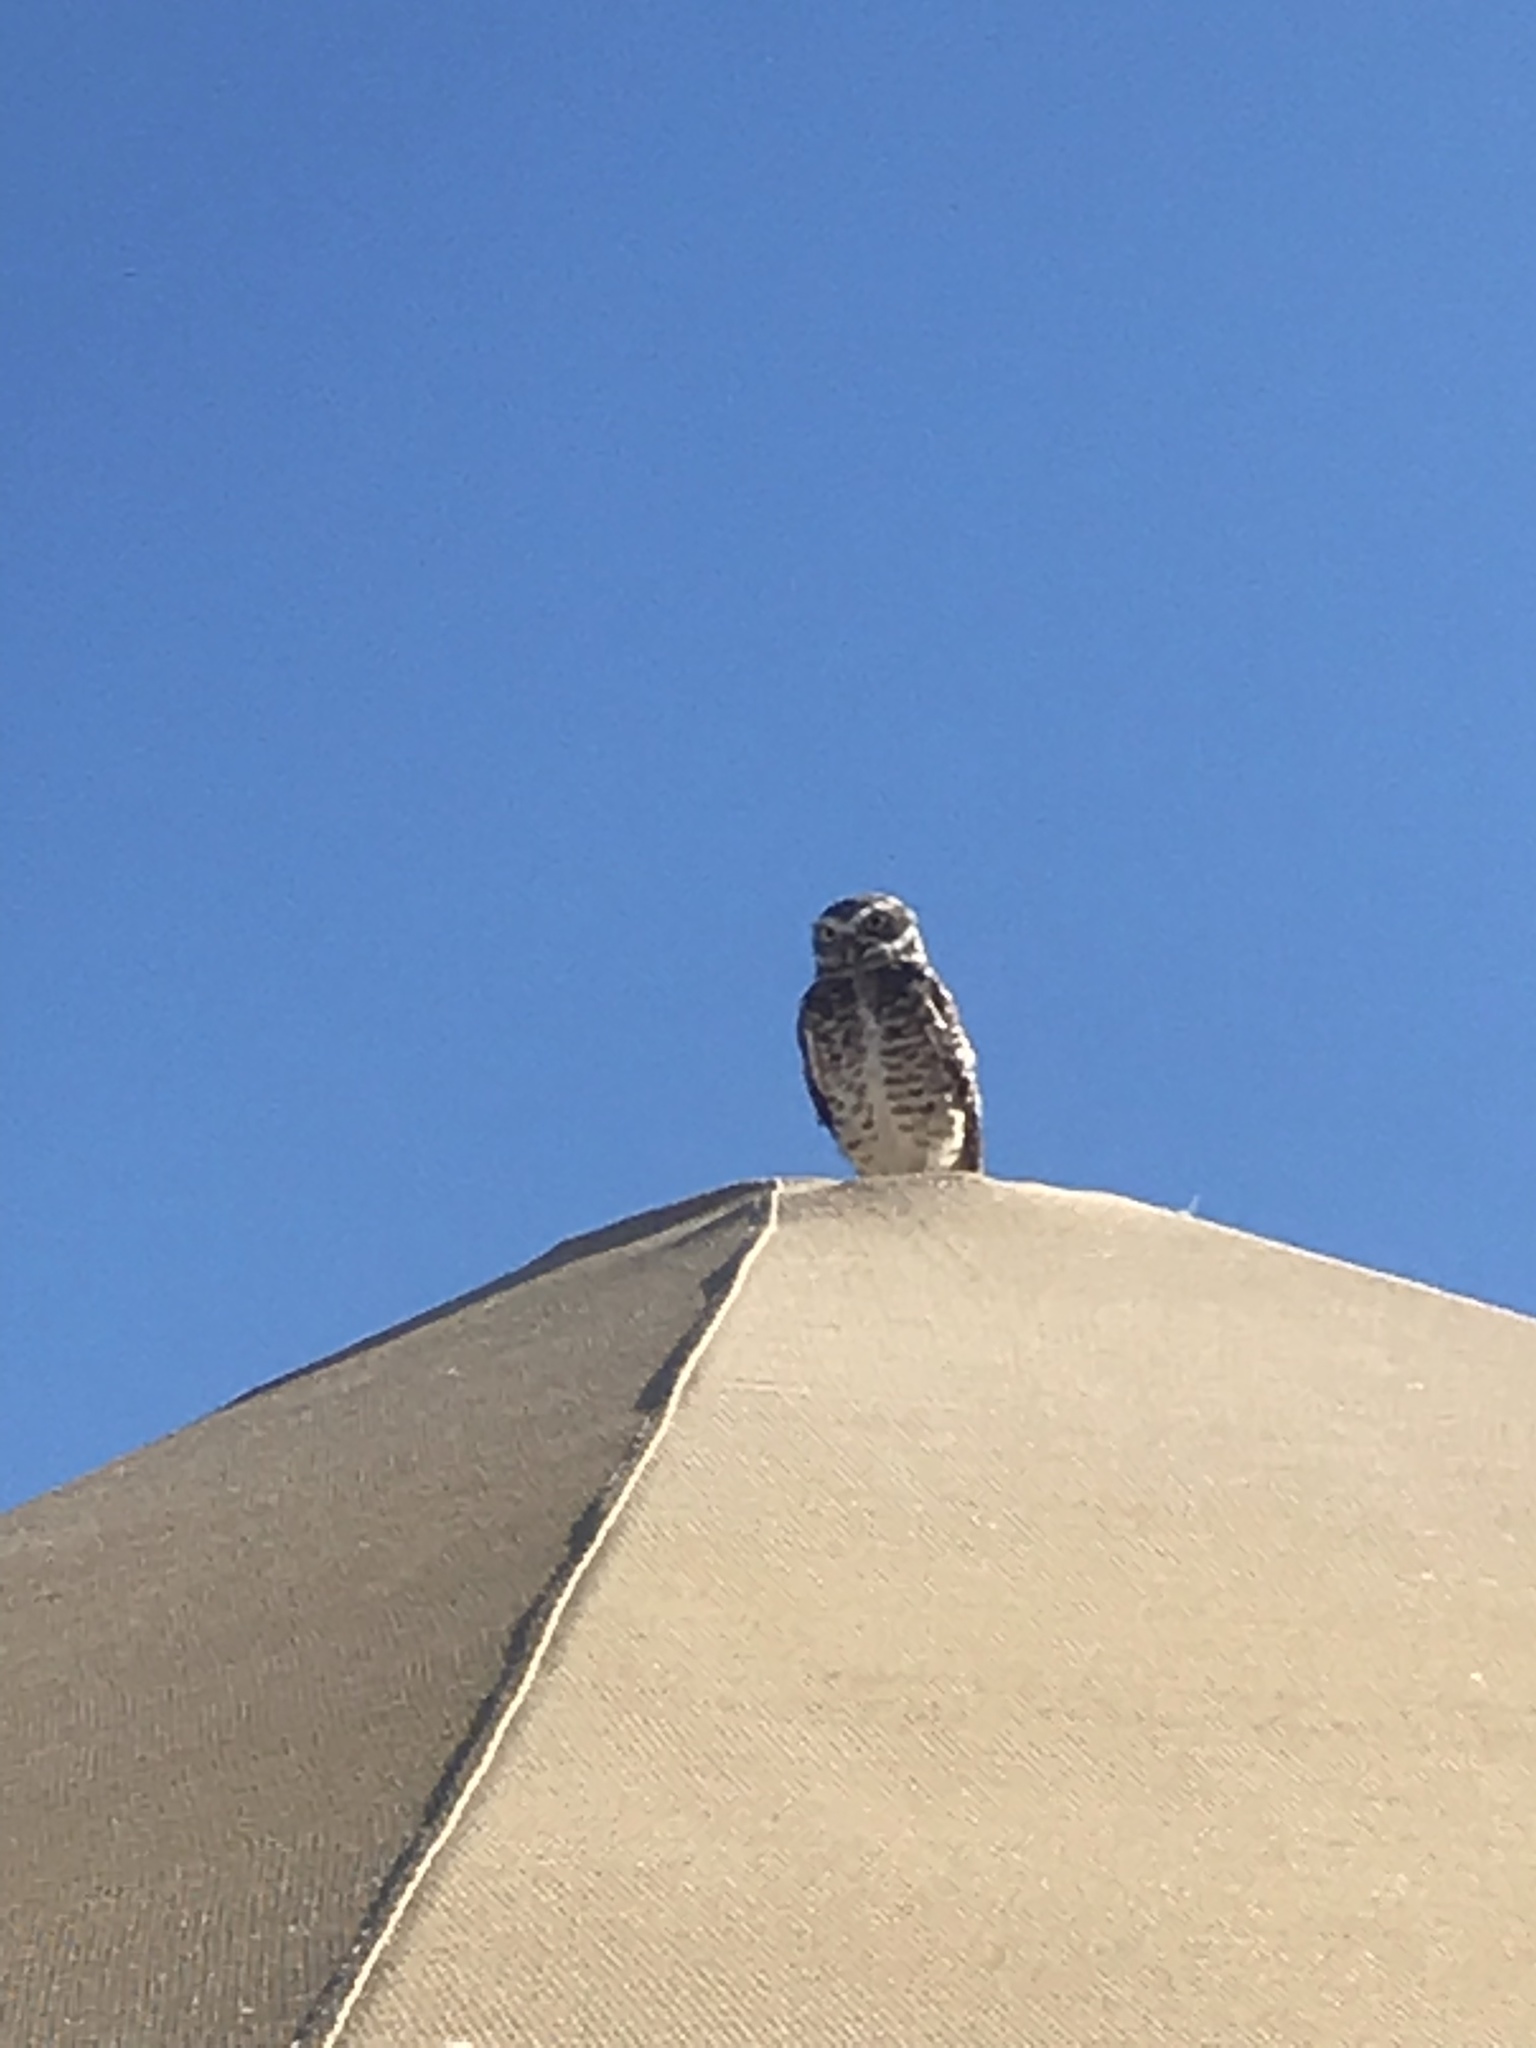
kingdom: Animalia
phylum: Chordata
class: Aves
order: Strigiformes
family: Strigidae
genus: Athene
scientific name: Athene cunicularia
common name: Burrowing owl
